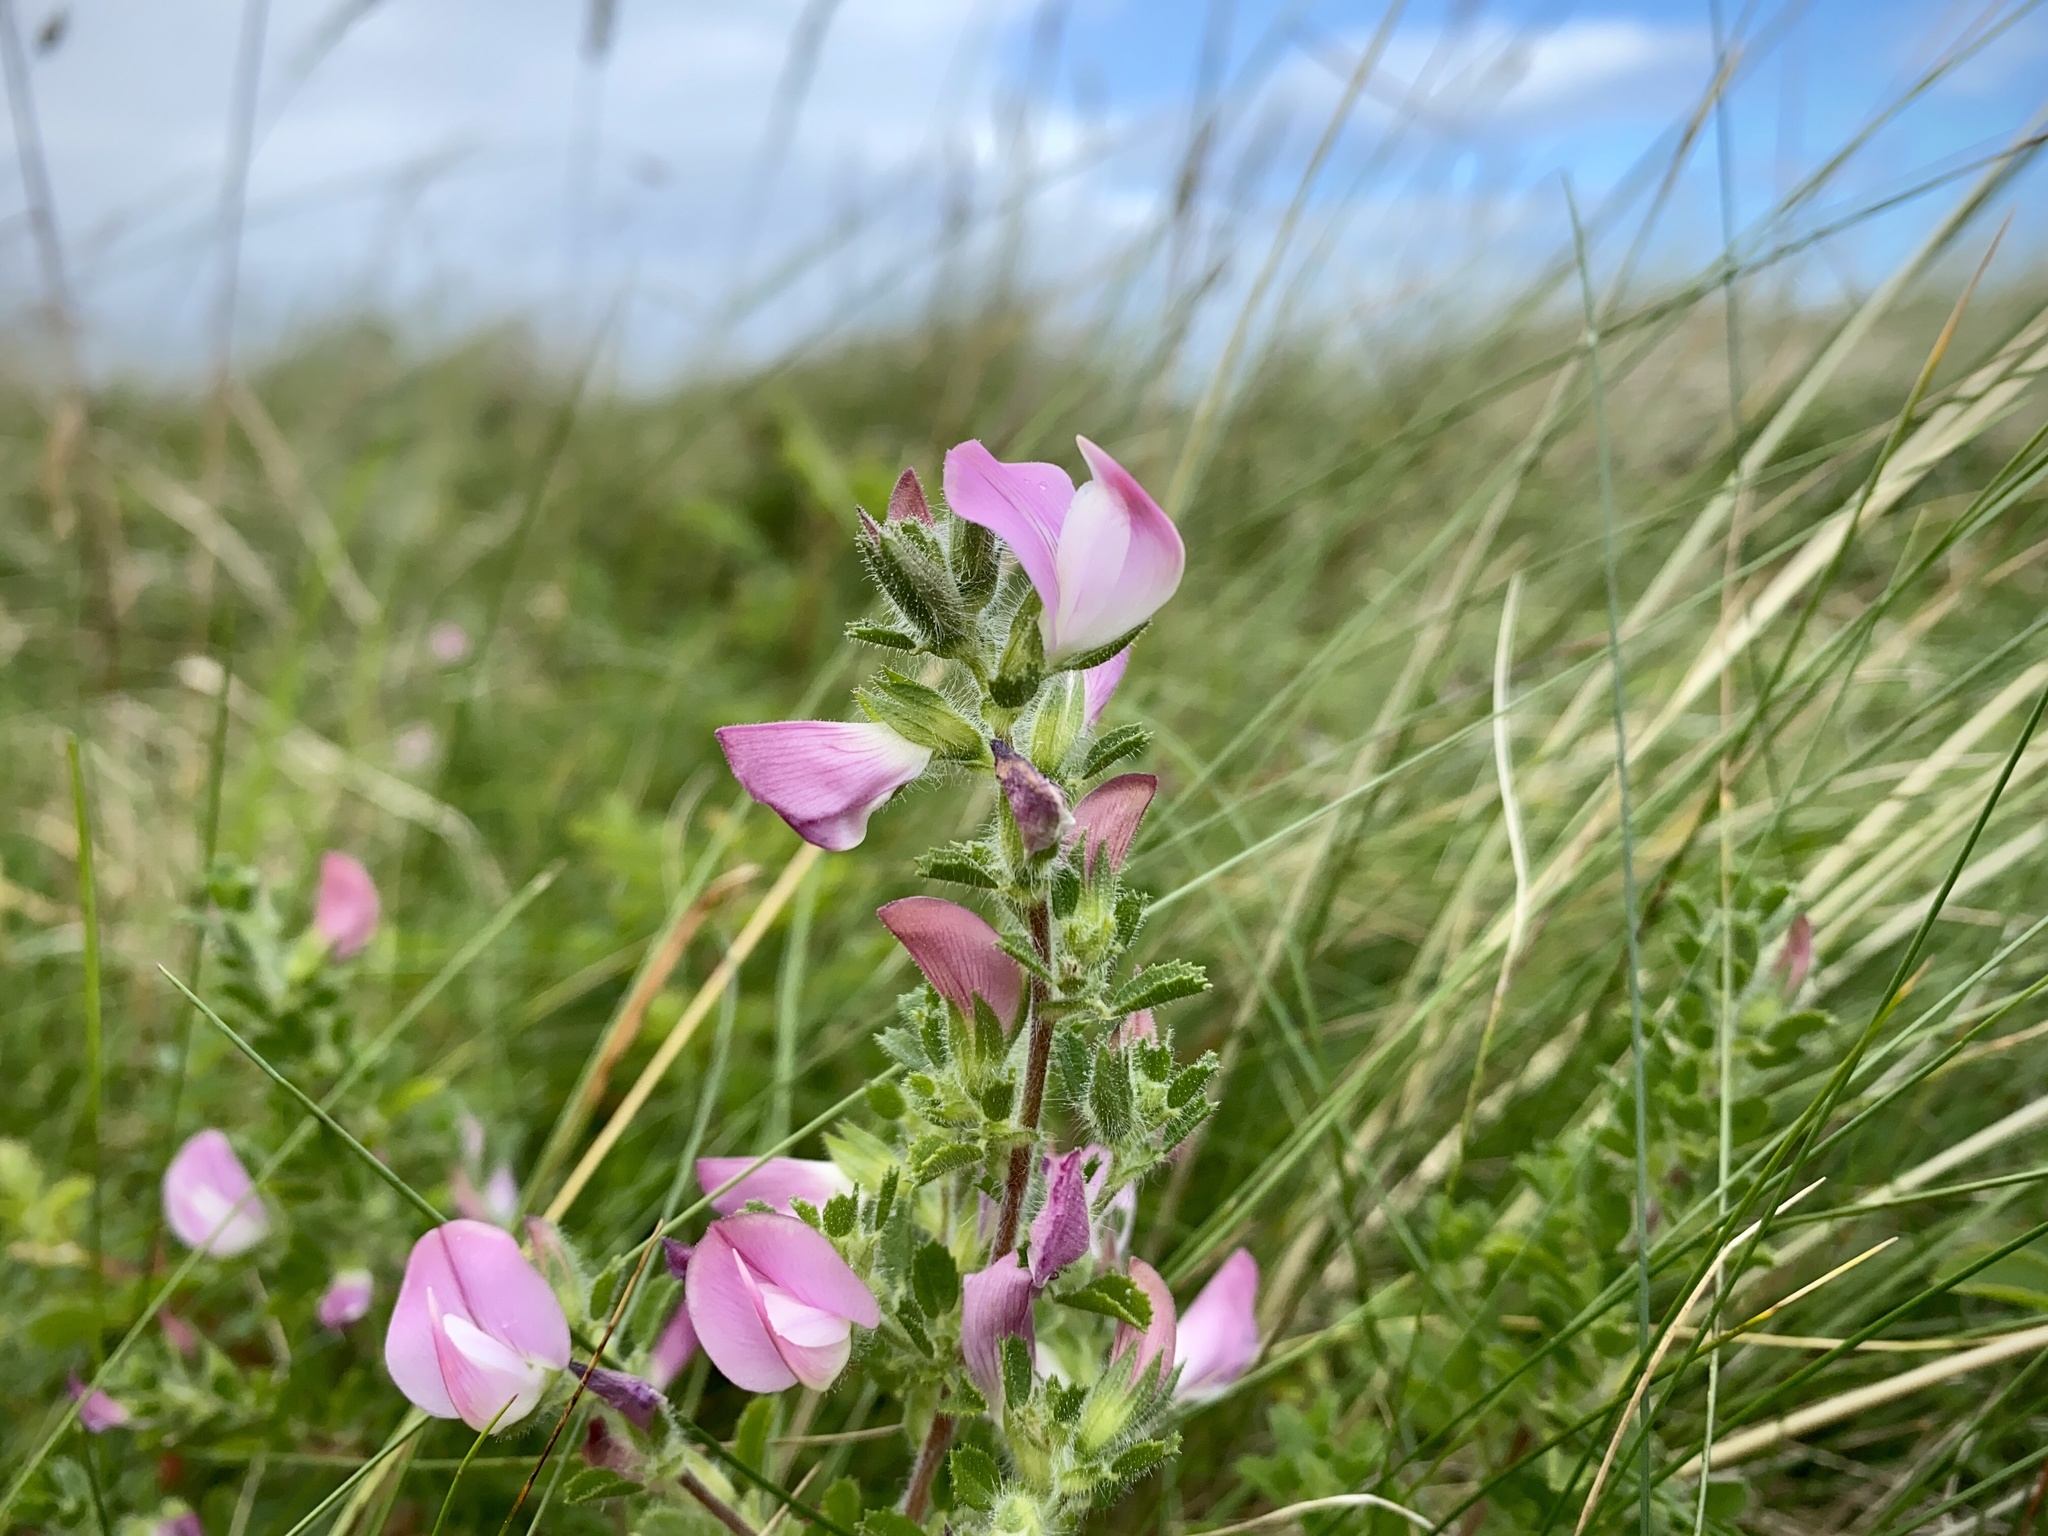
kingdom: Plantae
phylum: Tracheophyta
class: Magnoliopsida
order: Fabales
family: Fabaceae
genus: Ononis
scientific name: Ononis spinosa
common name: Spiny restharrow
